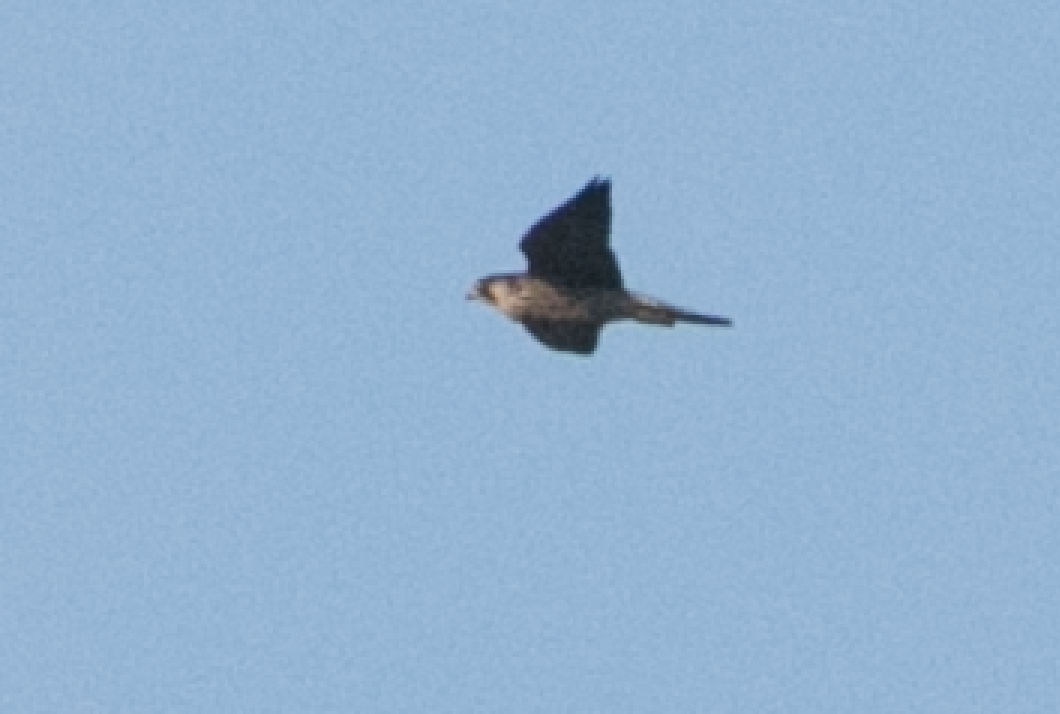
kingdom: Animalia
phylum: Chordata
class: Aves
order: Falconiformes
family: Falconidae
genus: Falco
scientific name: Falco peregrinus
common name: Peregrine falcon
